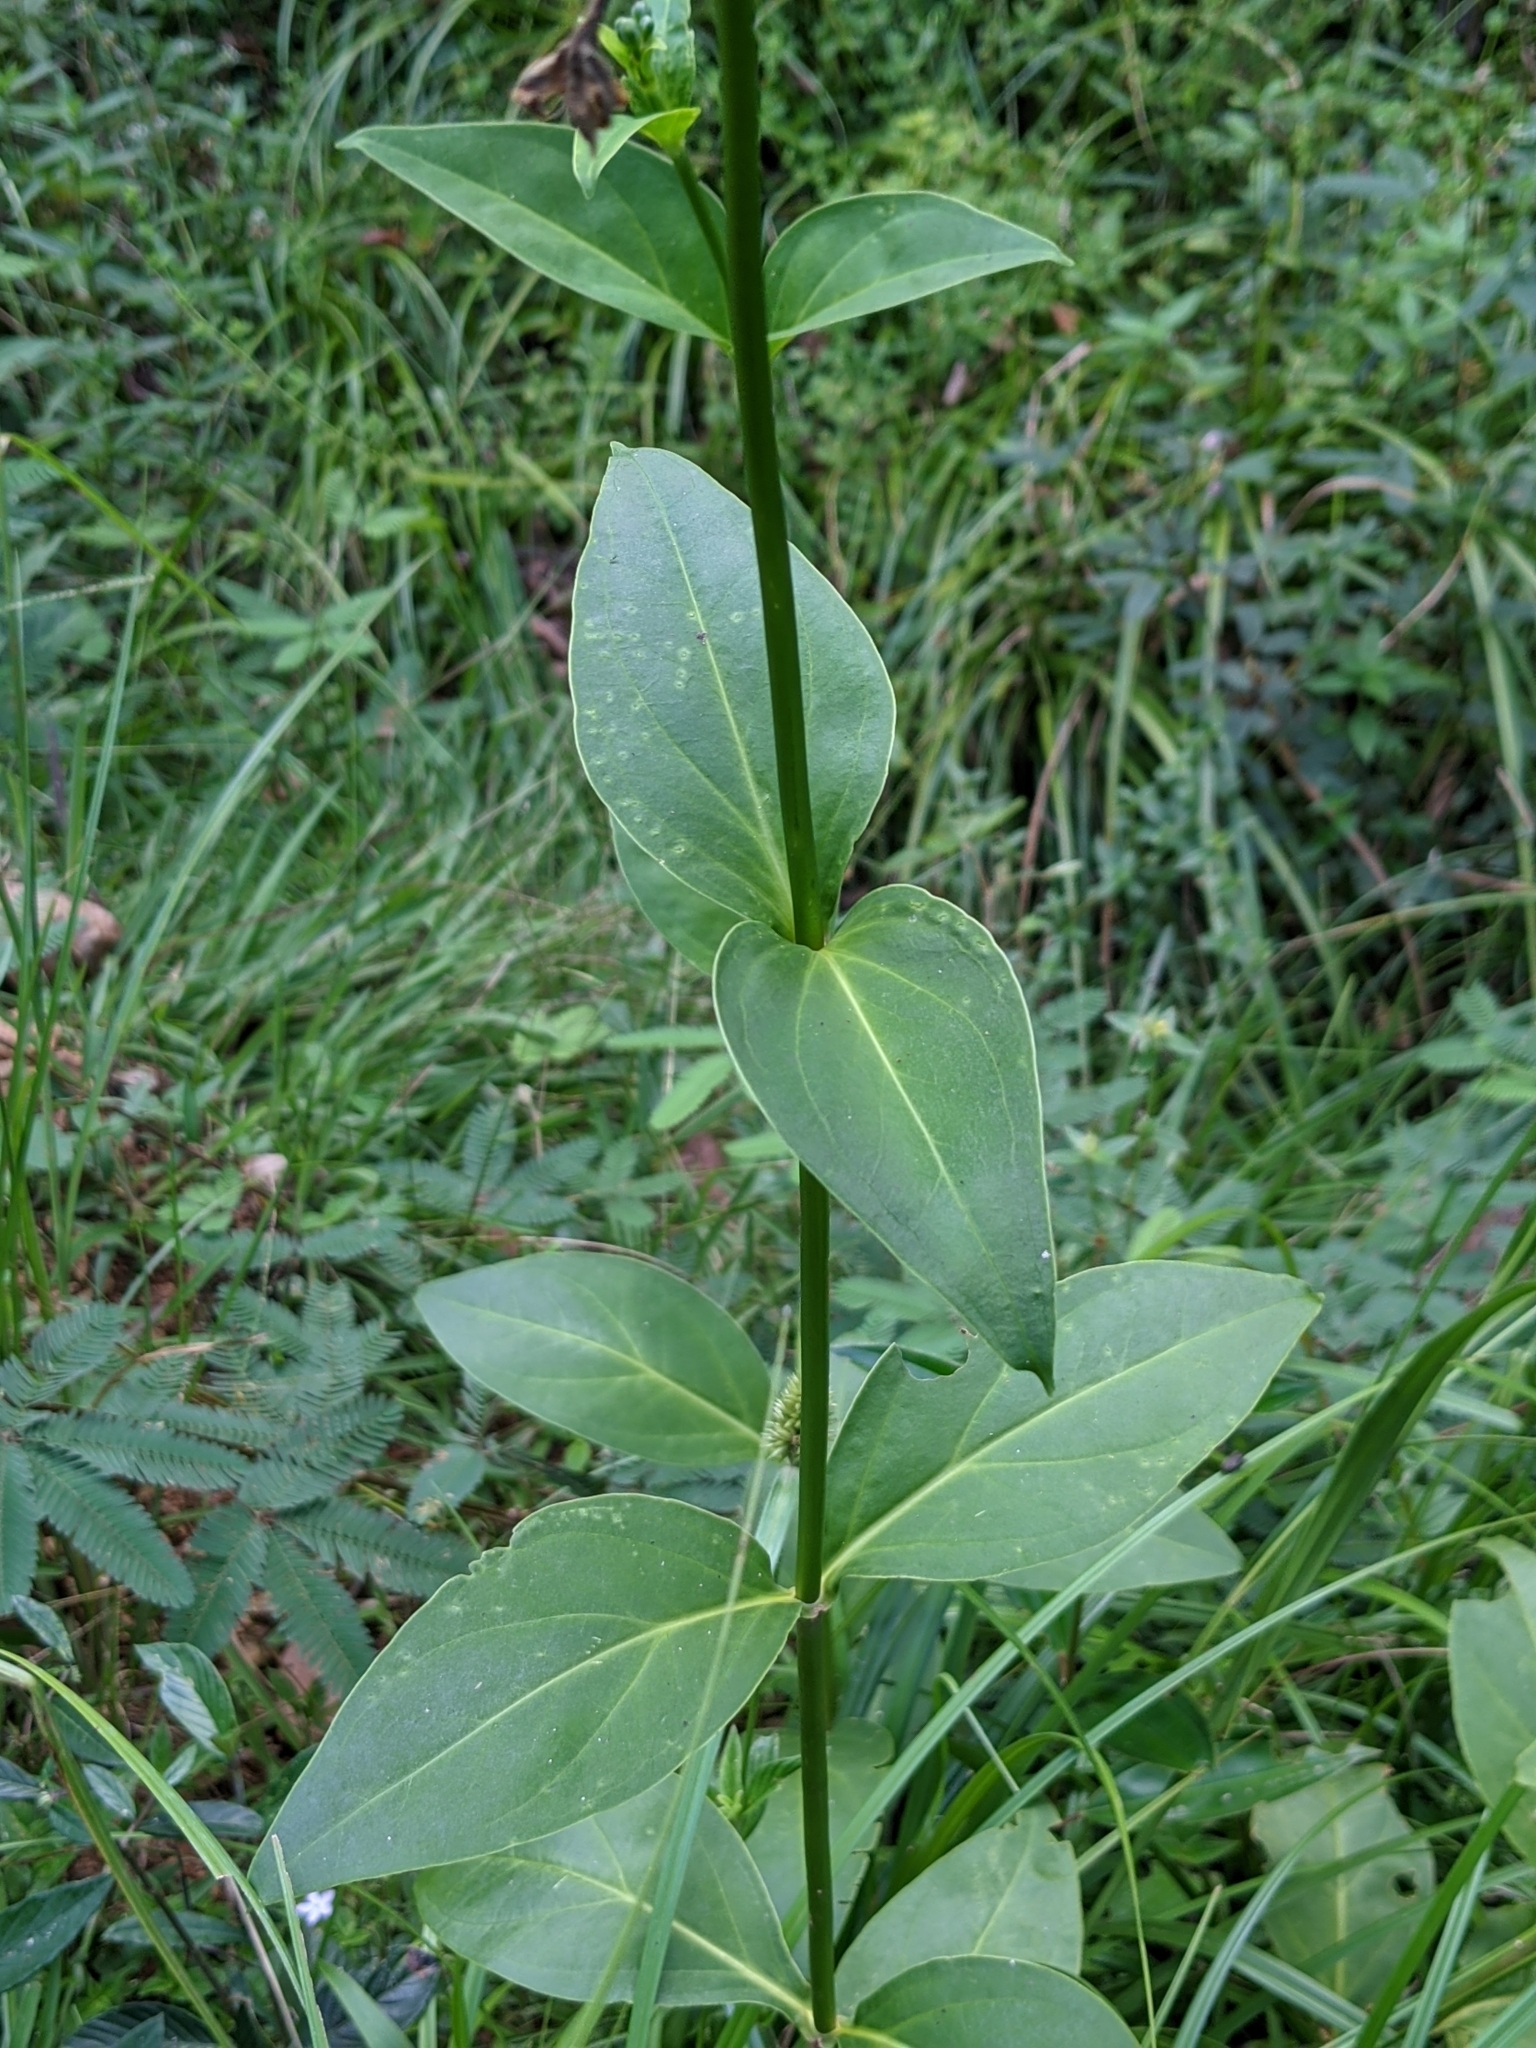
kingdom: Plantae
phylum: Tracheophyta
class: Magnoliopsida
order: Gentianales
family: Gentianaceae
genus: Chelonanthus
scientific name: Chelonanthus grandiflorus
